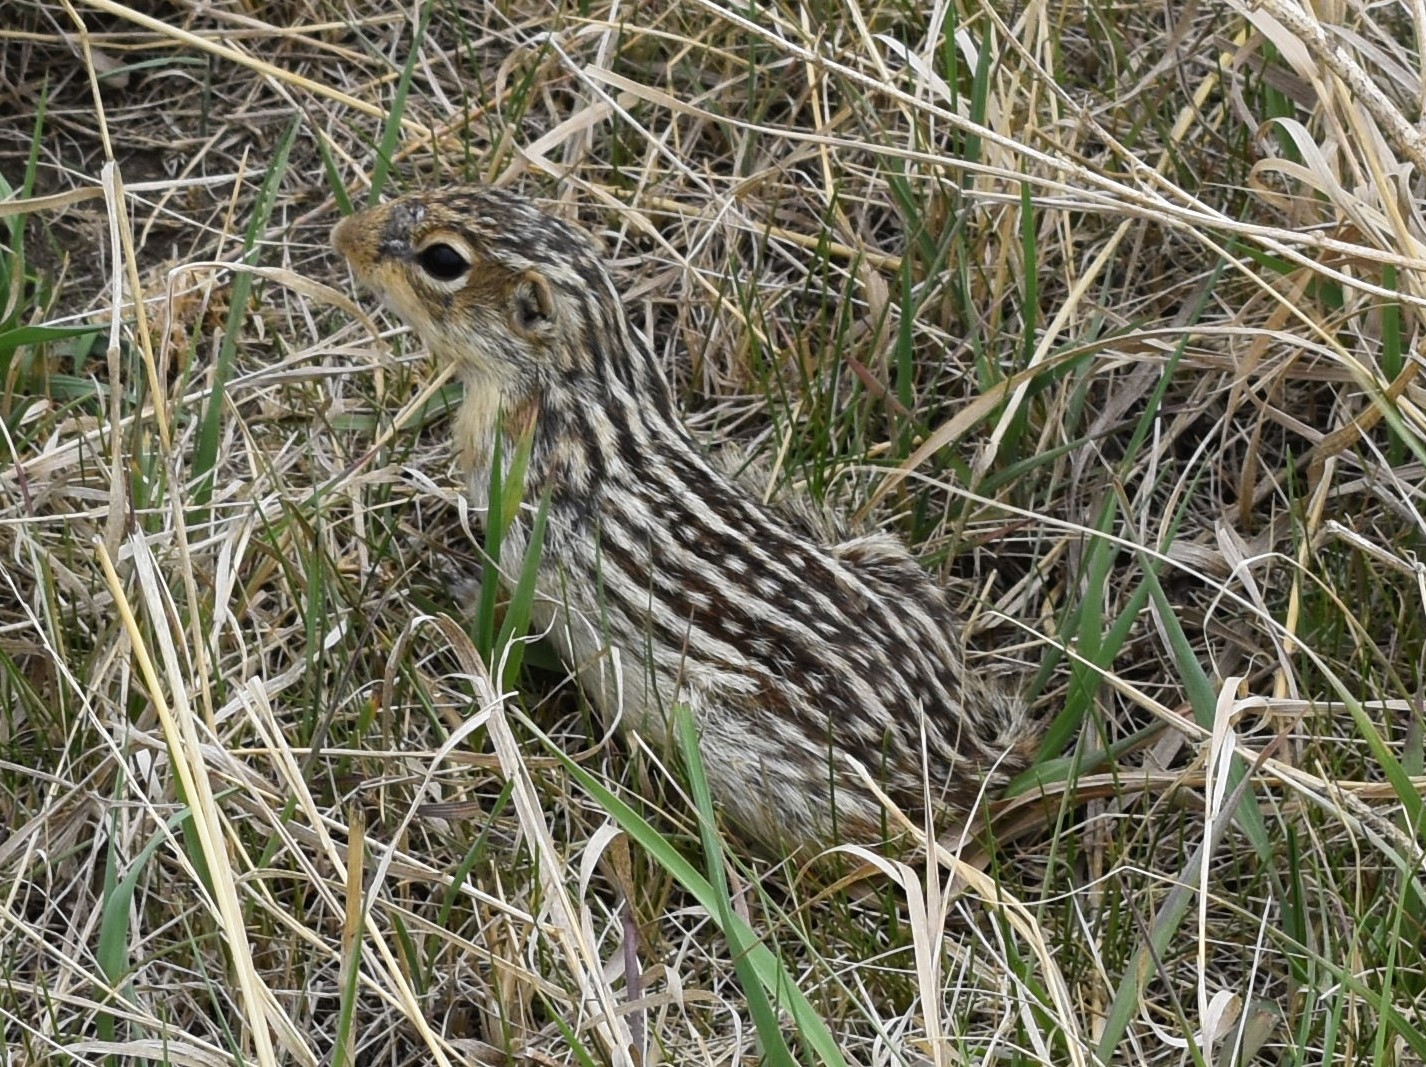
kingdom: Animalia
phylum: Chordata
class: Mammalia
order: Rodentia
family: Sciuridae
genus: Ictidomys
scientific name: Ictidomys tridecemlineatus
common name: Thirteen-lined ground squirrel
